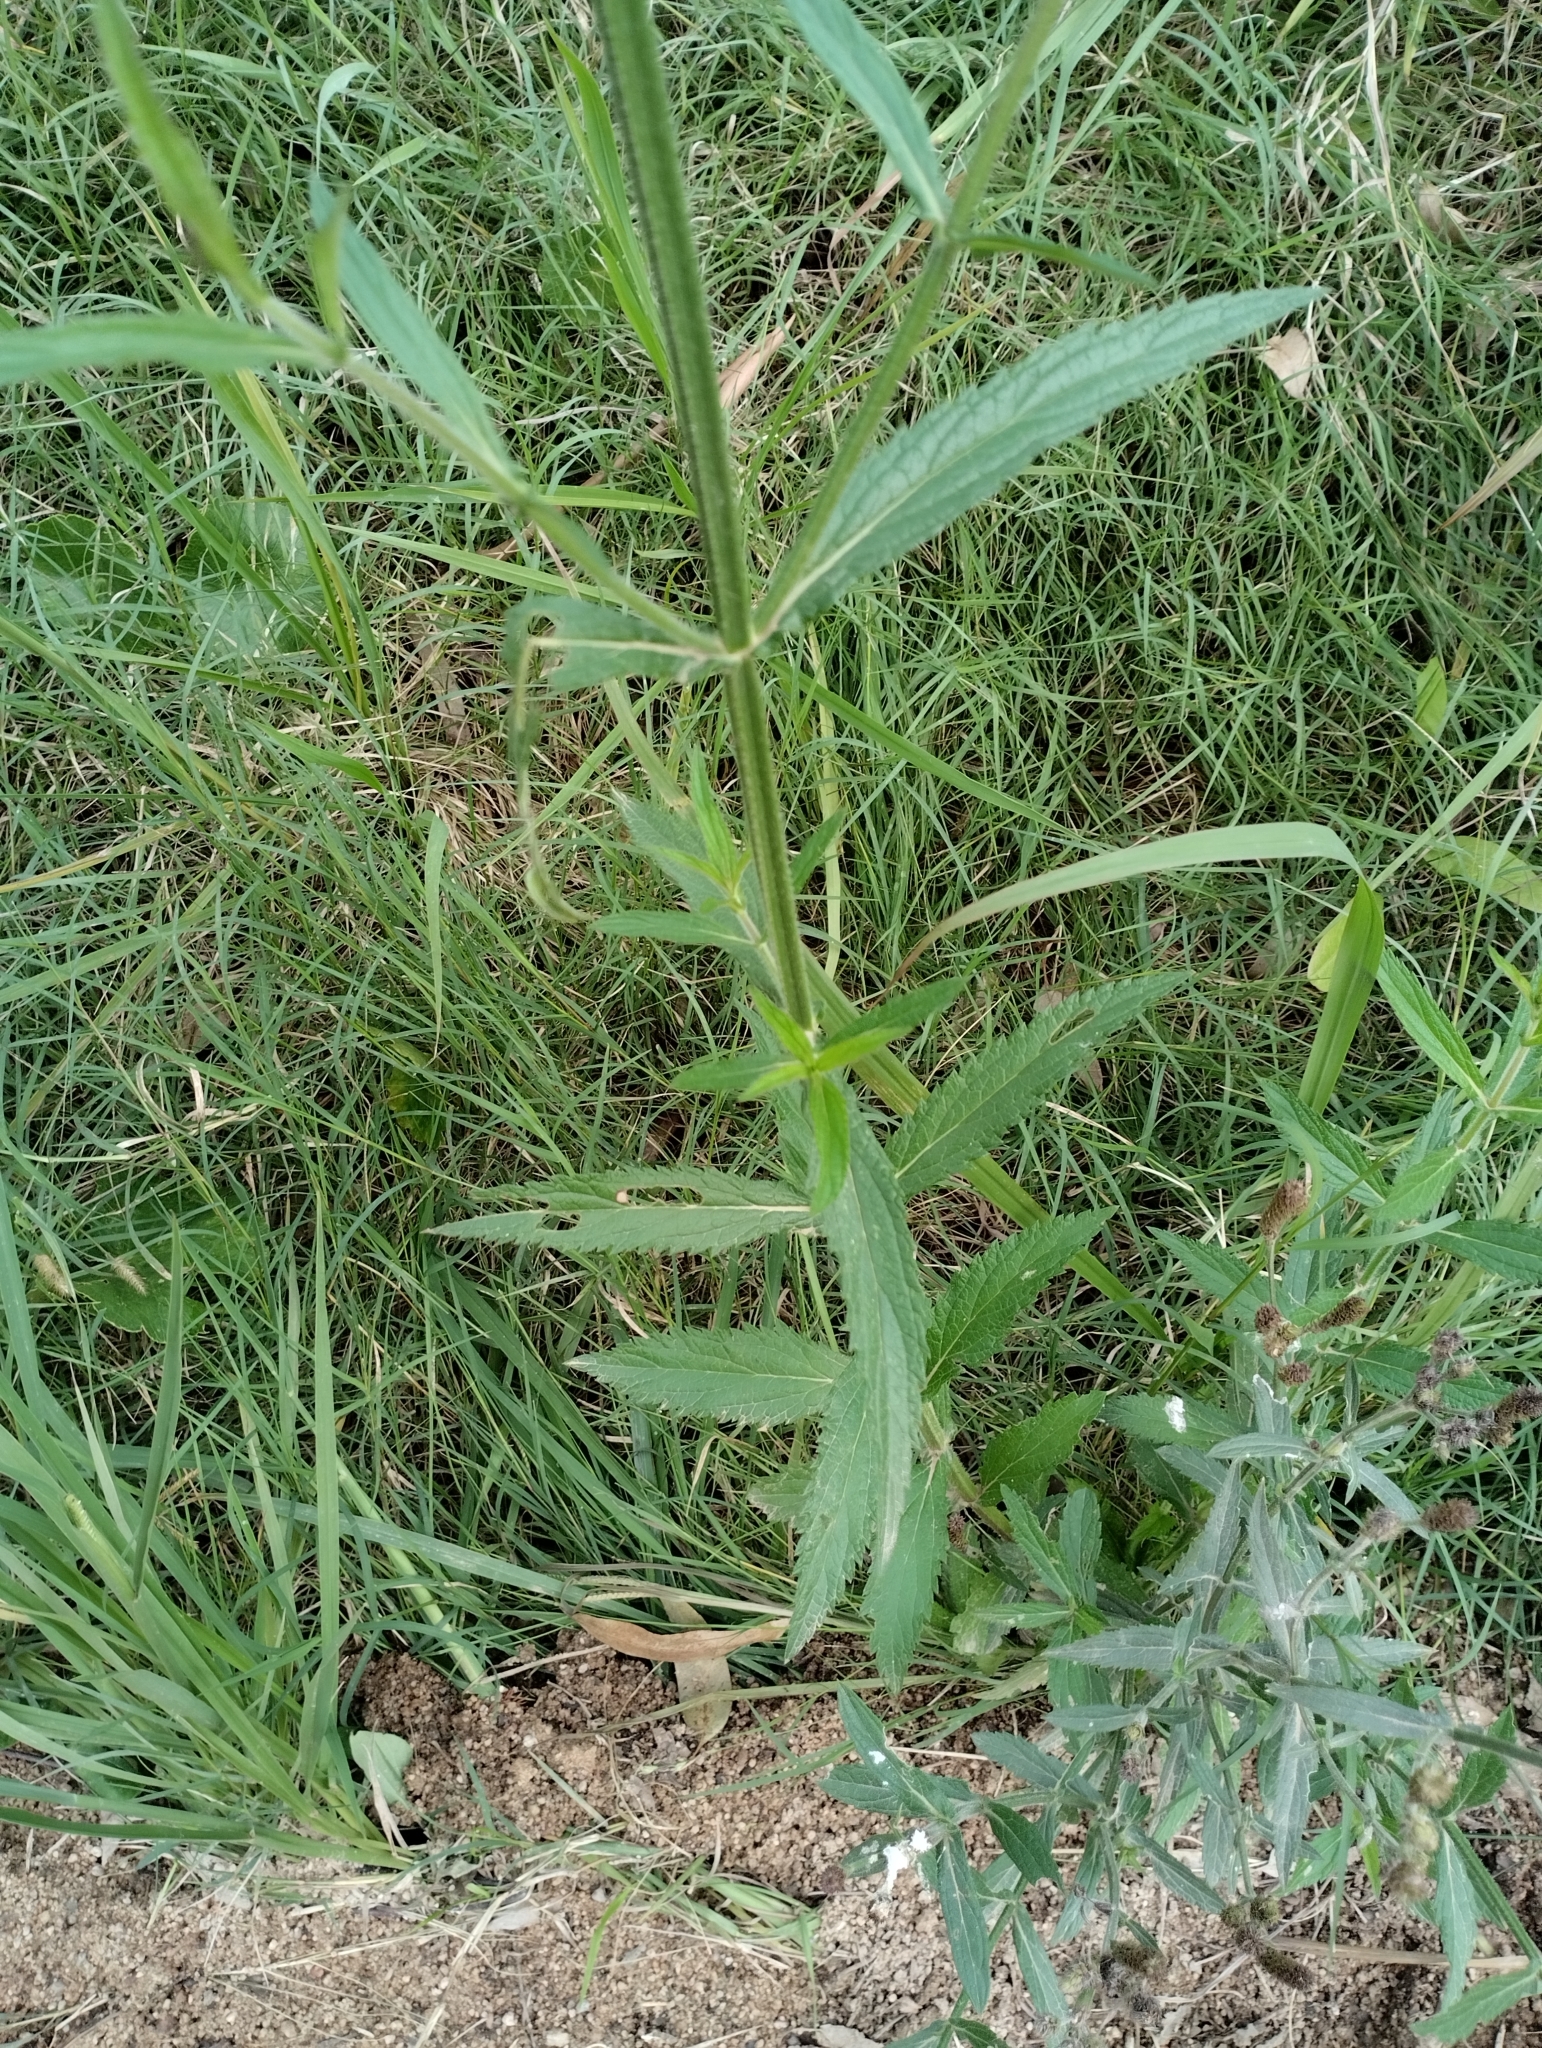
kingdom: Plantae
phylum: Tracheophyta
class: Magnoliopsida
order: Lamiales
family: Verbenaceae
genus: Verbena
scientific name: Verbena bonariensis
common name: Purpletop vervain
